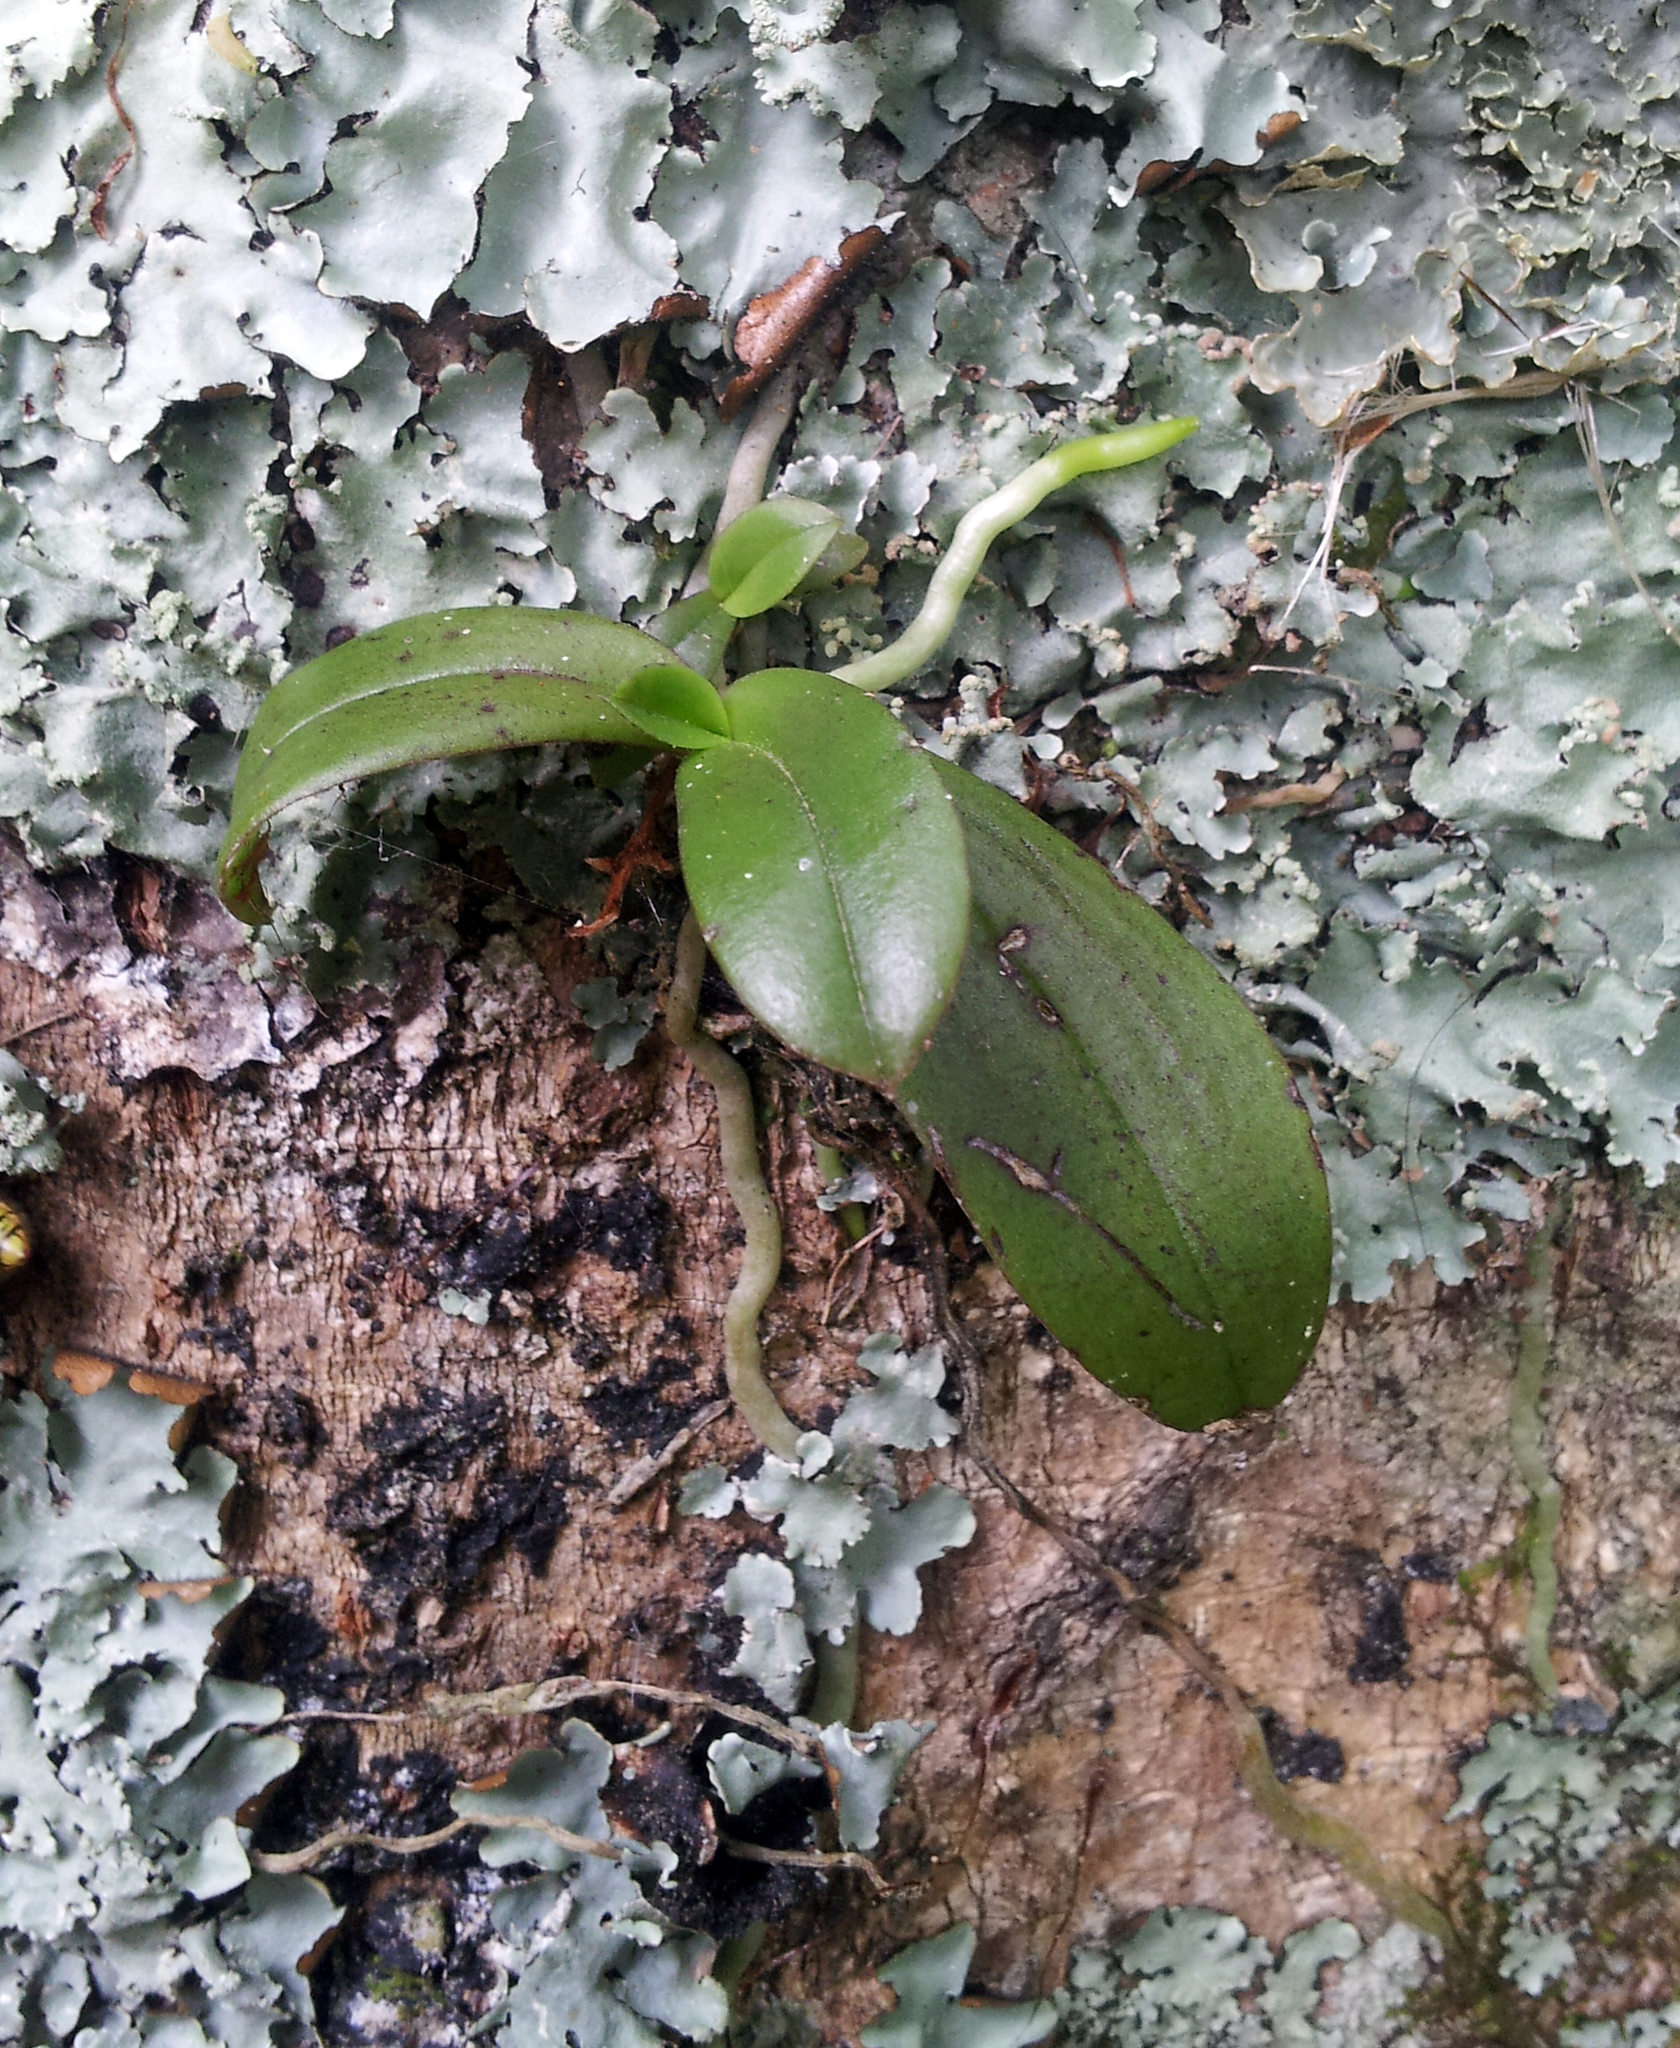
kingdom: Plantae
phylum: Tracheophyta
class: Liliopsida
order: Asparagales
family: Orchidaceae
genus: Drymoanthus
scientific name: Drymoanthus adversus
